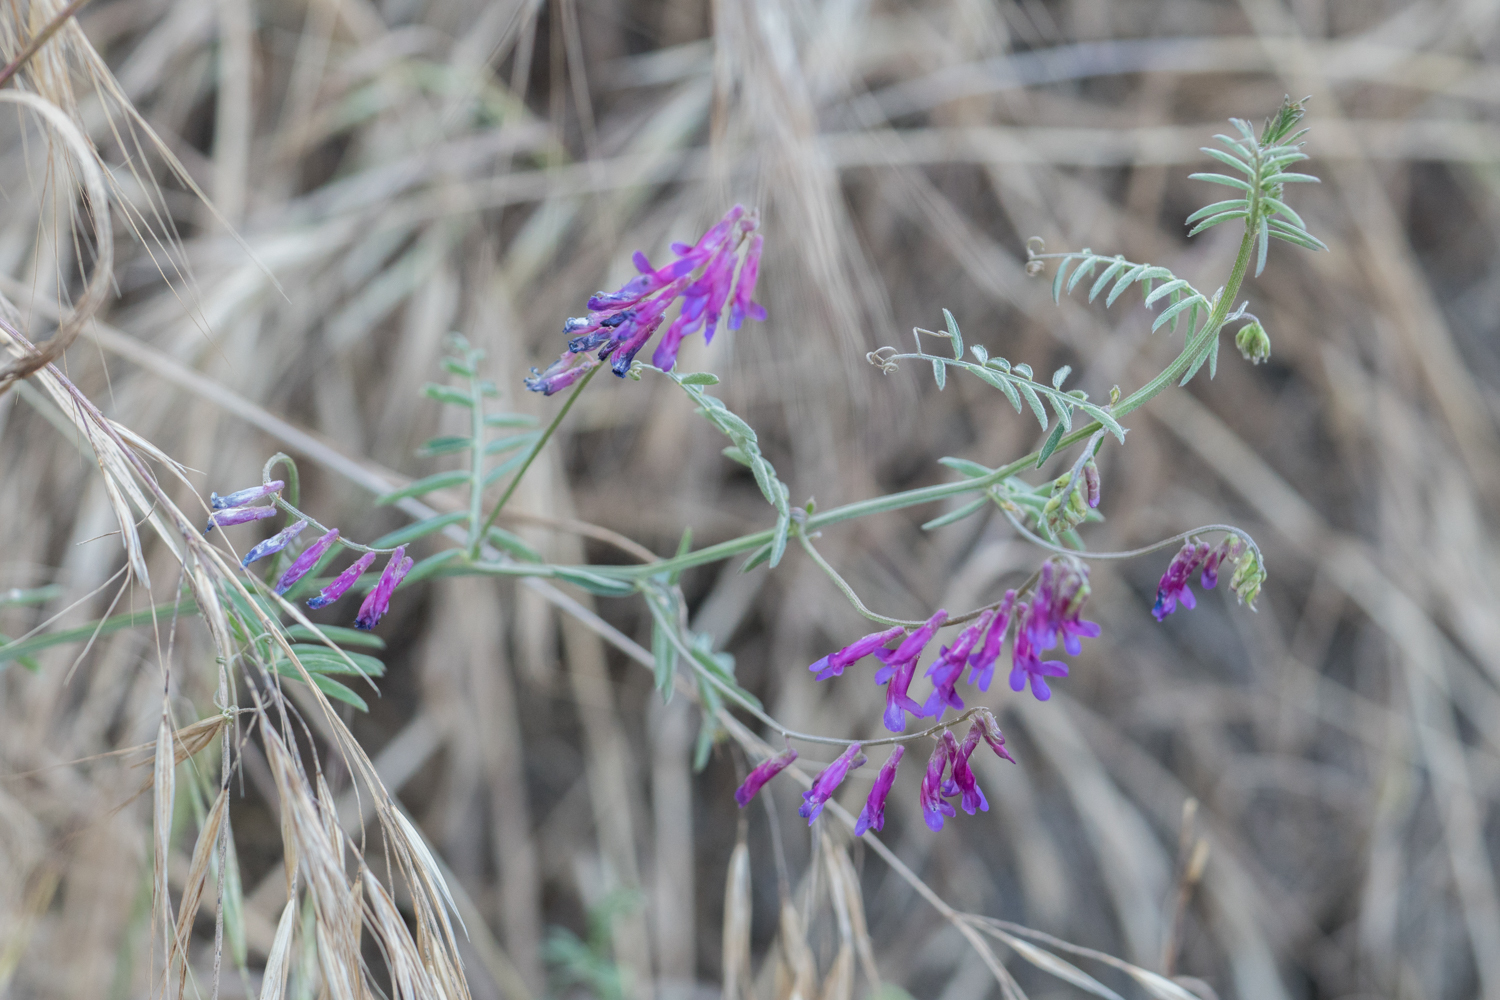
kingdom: Plantae
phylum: Tracheophyta
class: Magnoliopsida
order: Fabales
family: Fabaceae
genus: Vicia
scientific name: Vicia villosa
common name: Fodder vetch
